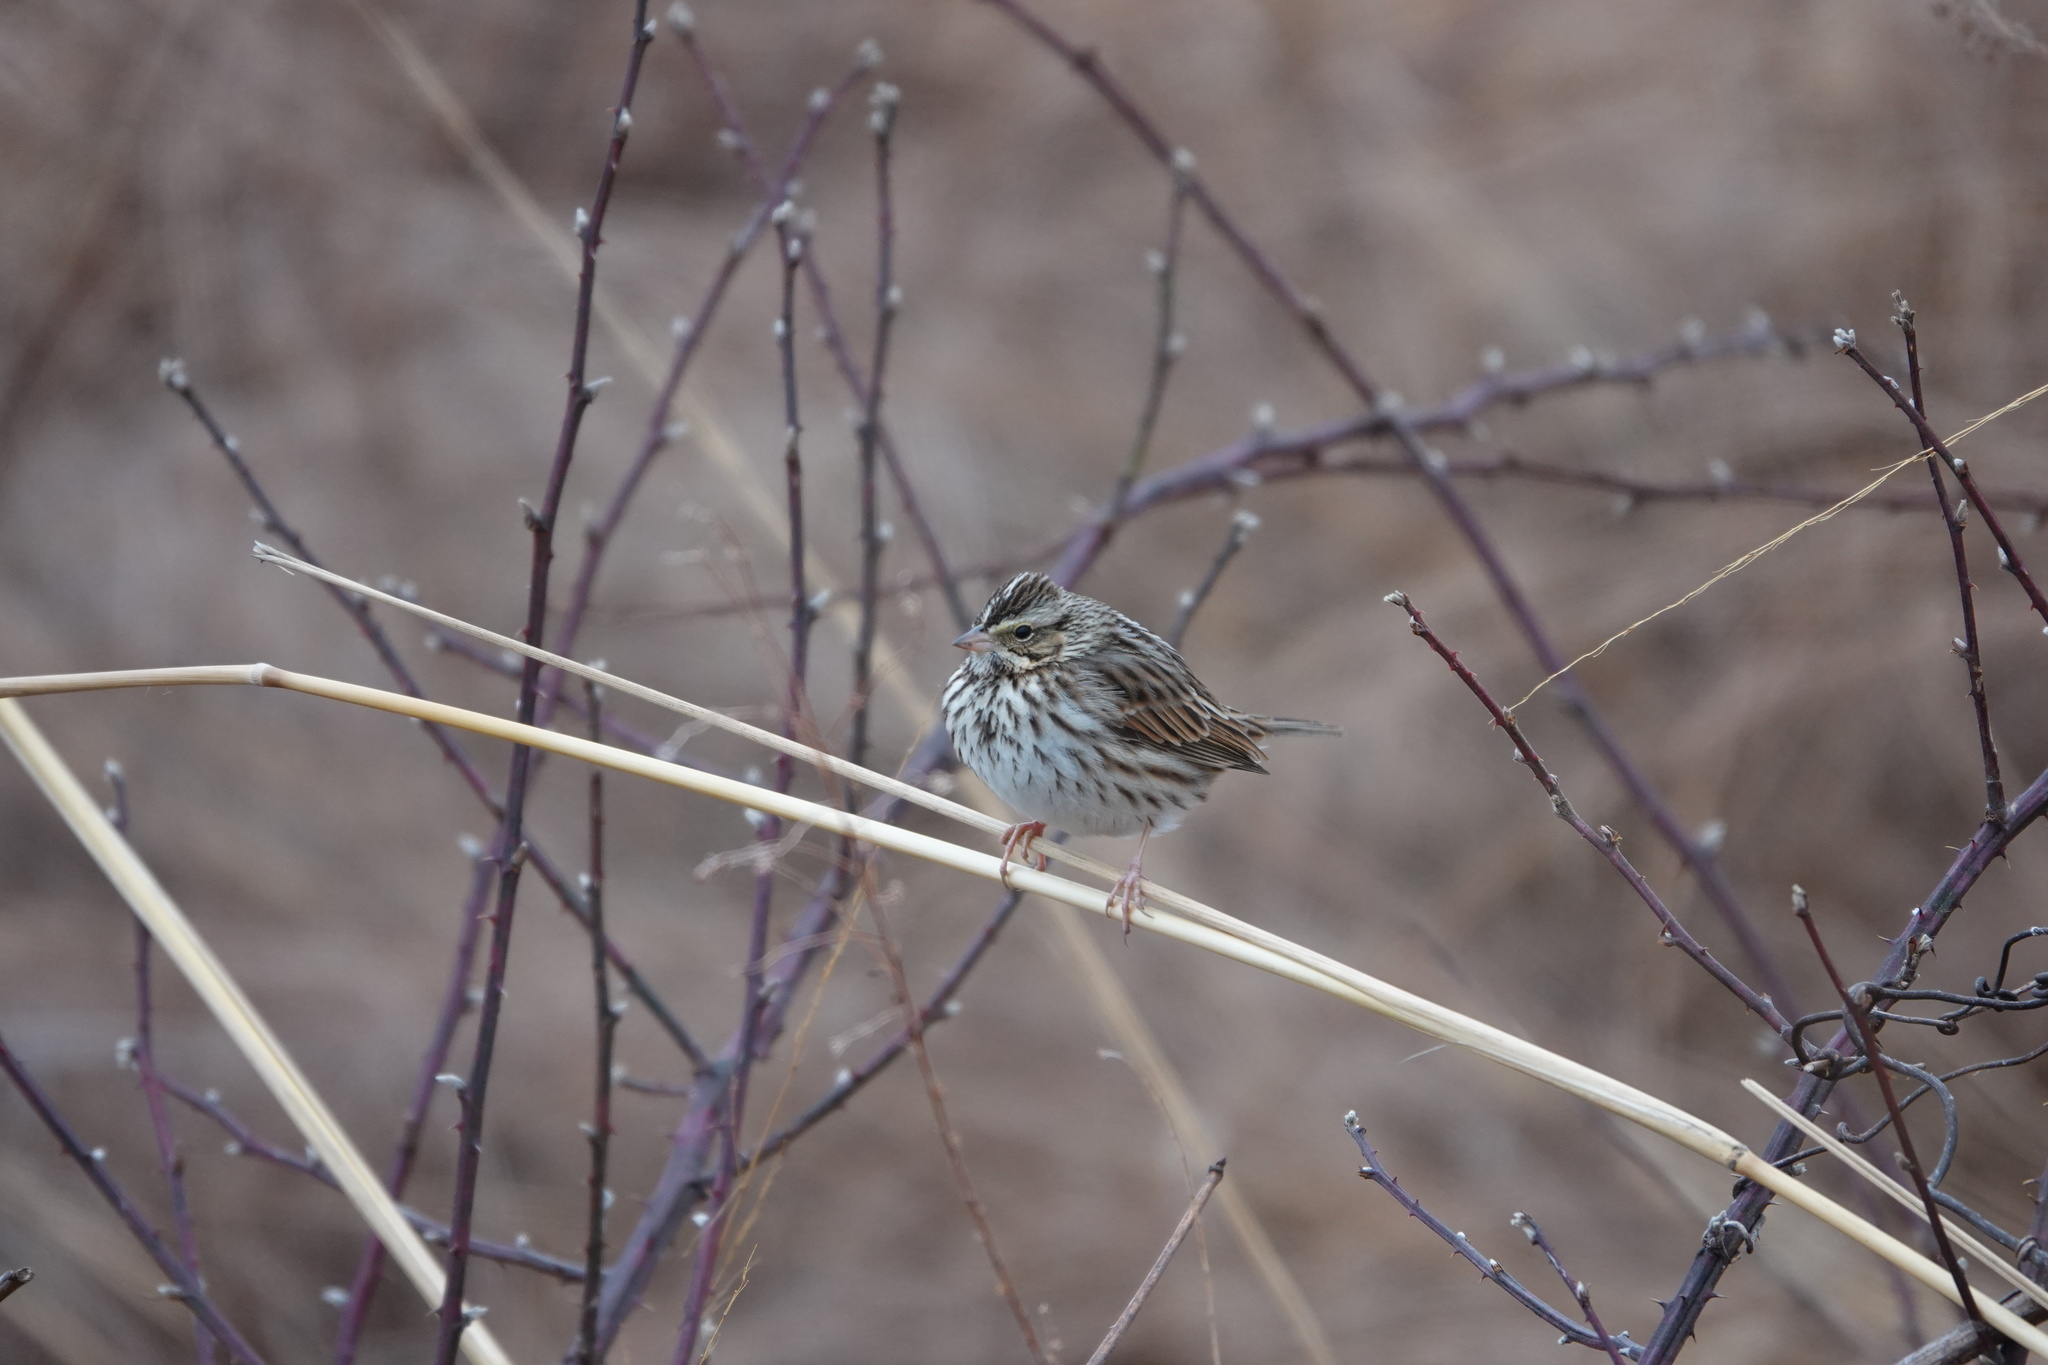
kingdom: Animalia
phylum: Chordata
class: Aves
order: Passeriformes
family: Passerellidae
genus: Passerculus
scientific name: Passerculus sandwichensis
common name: Savannah sparrow
